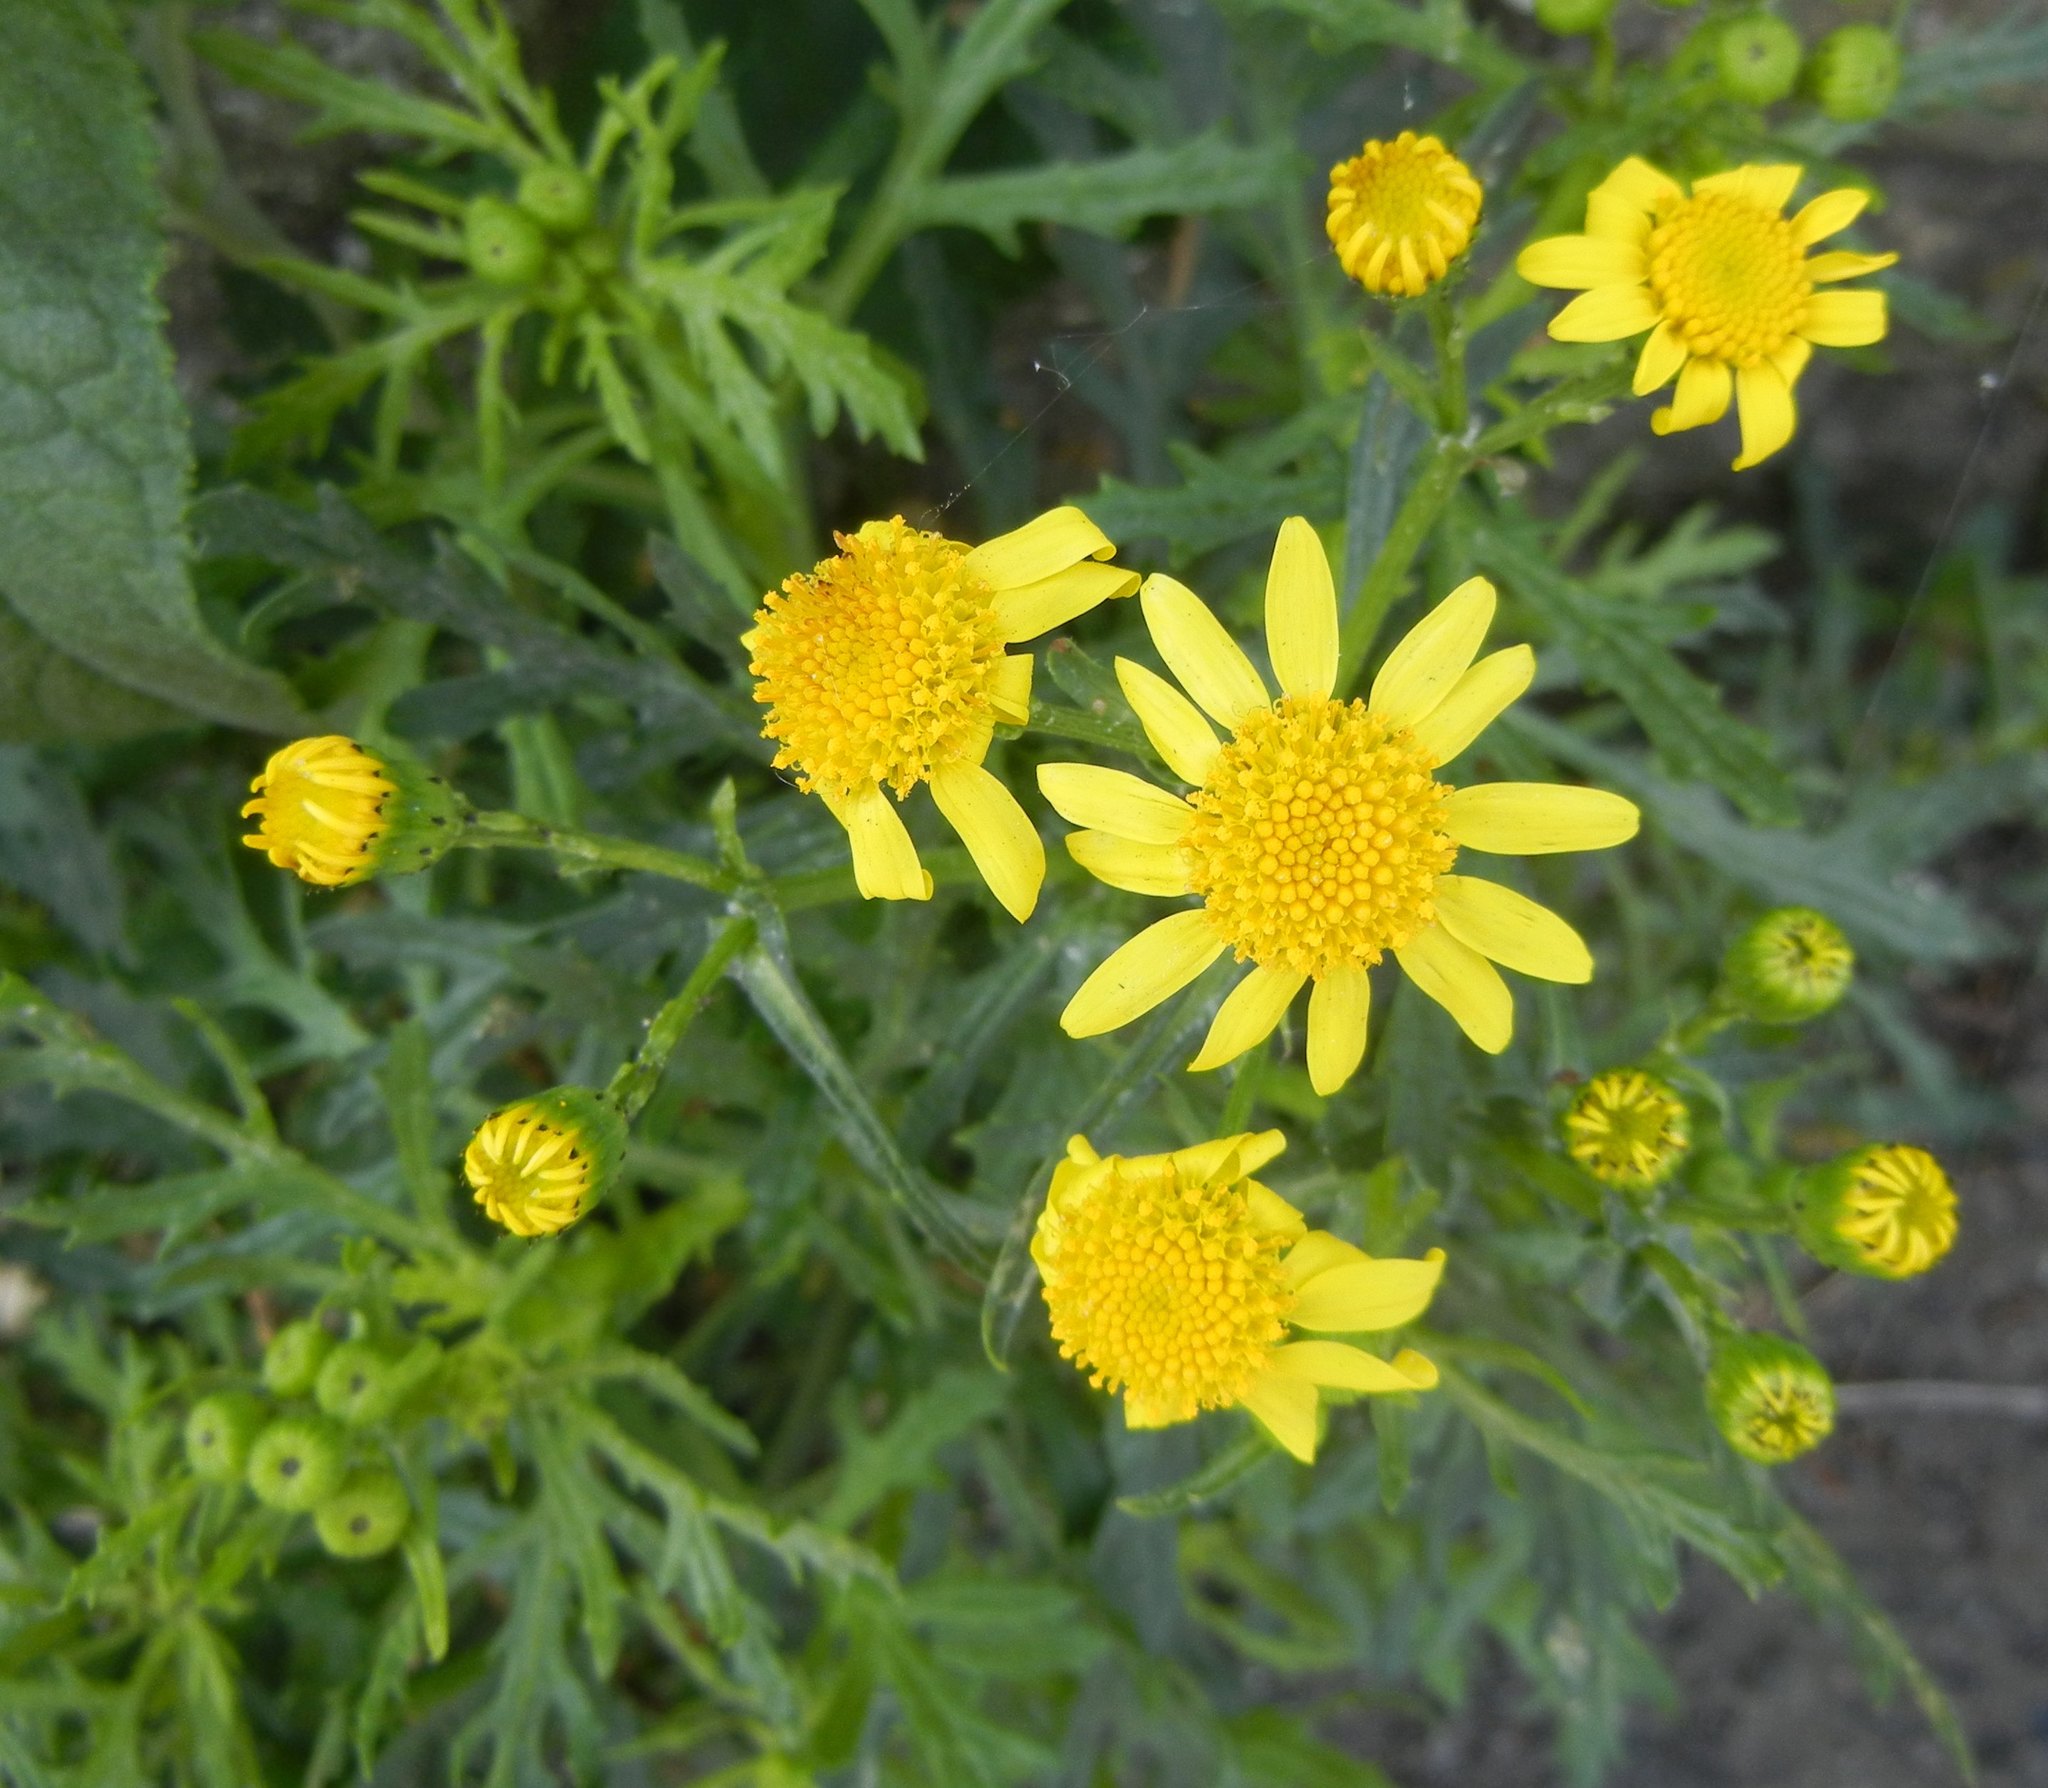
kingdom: Plantae
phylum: Tracheophyta
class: Magnoliopsida
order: Asterales
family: Asteraceae
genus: Senecio
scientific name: Senecio squalidus
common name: Oxford ragwort
